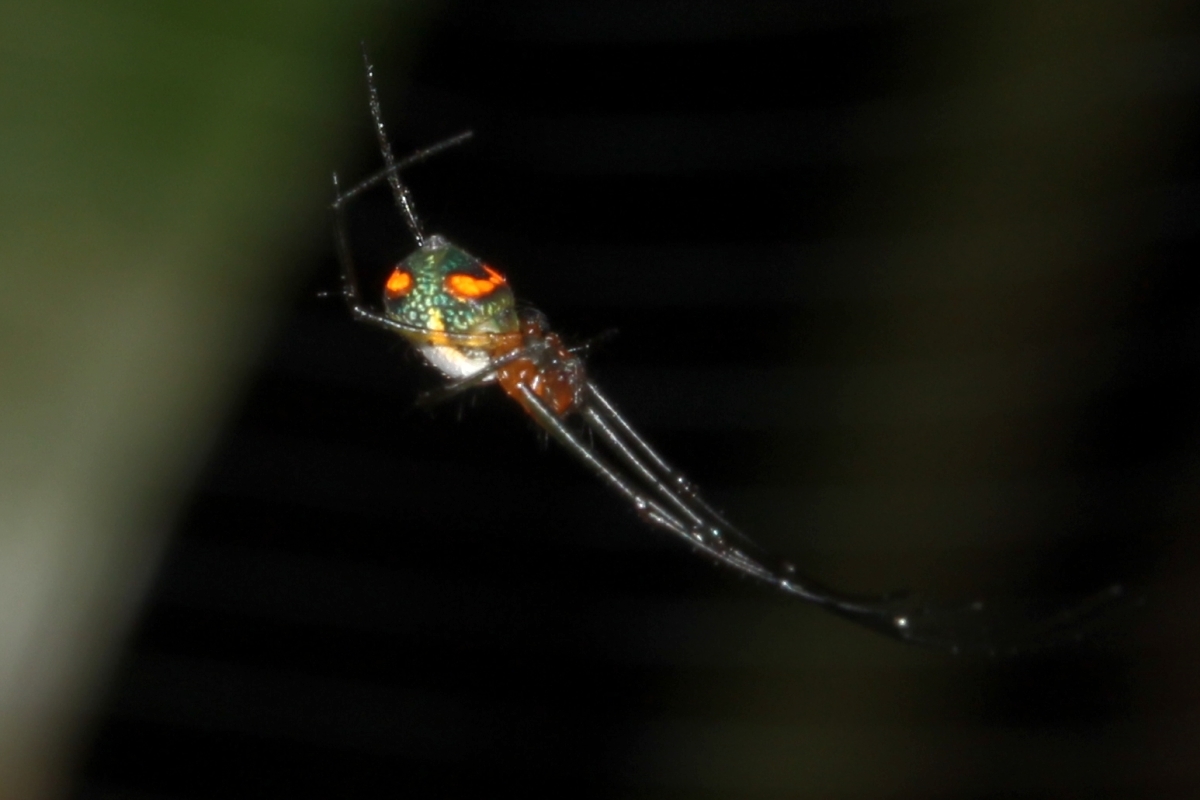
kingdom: Animalia
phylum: Arthropoda
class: Arachnida
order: Araneae
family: Tetragnathidae
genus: Leucauge
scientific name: Leucauge
